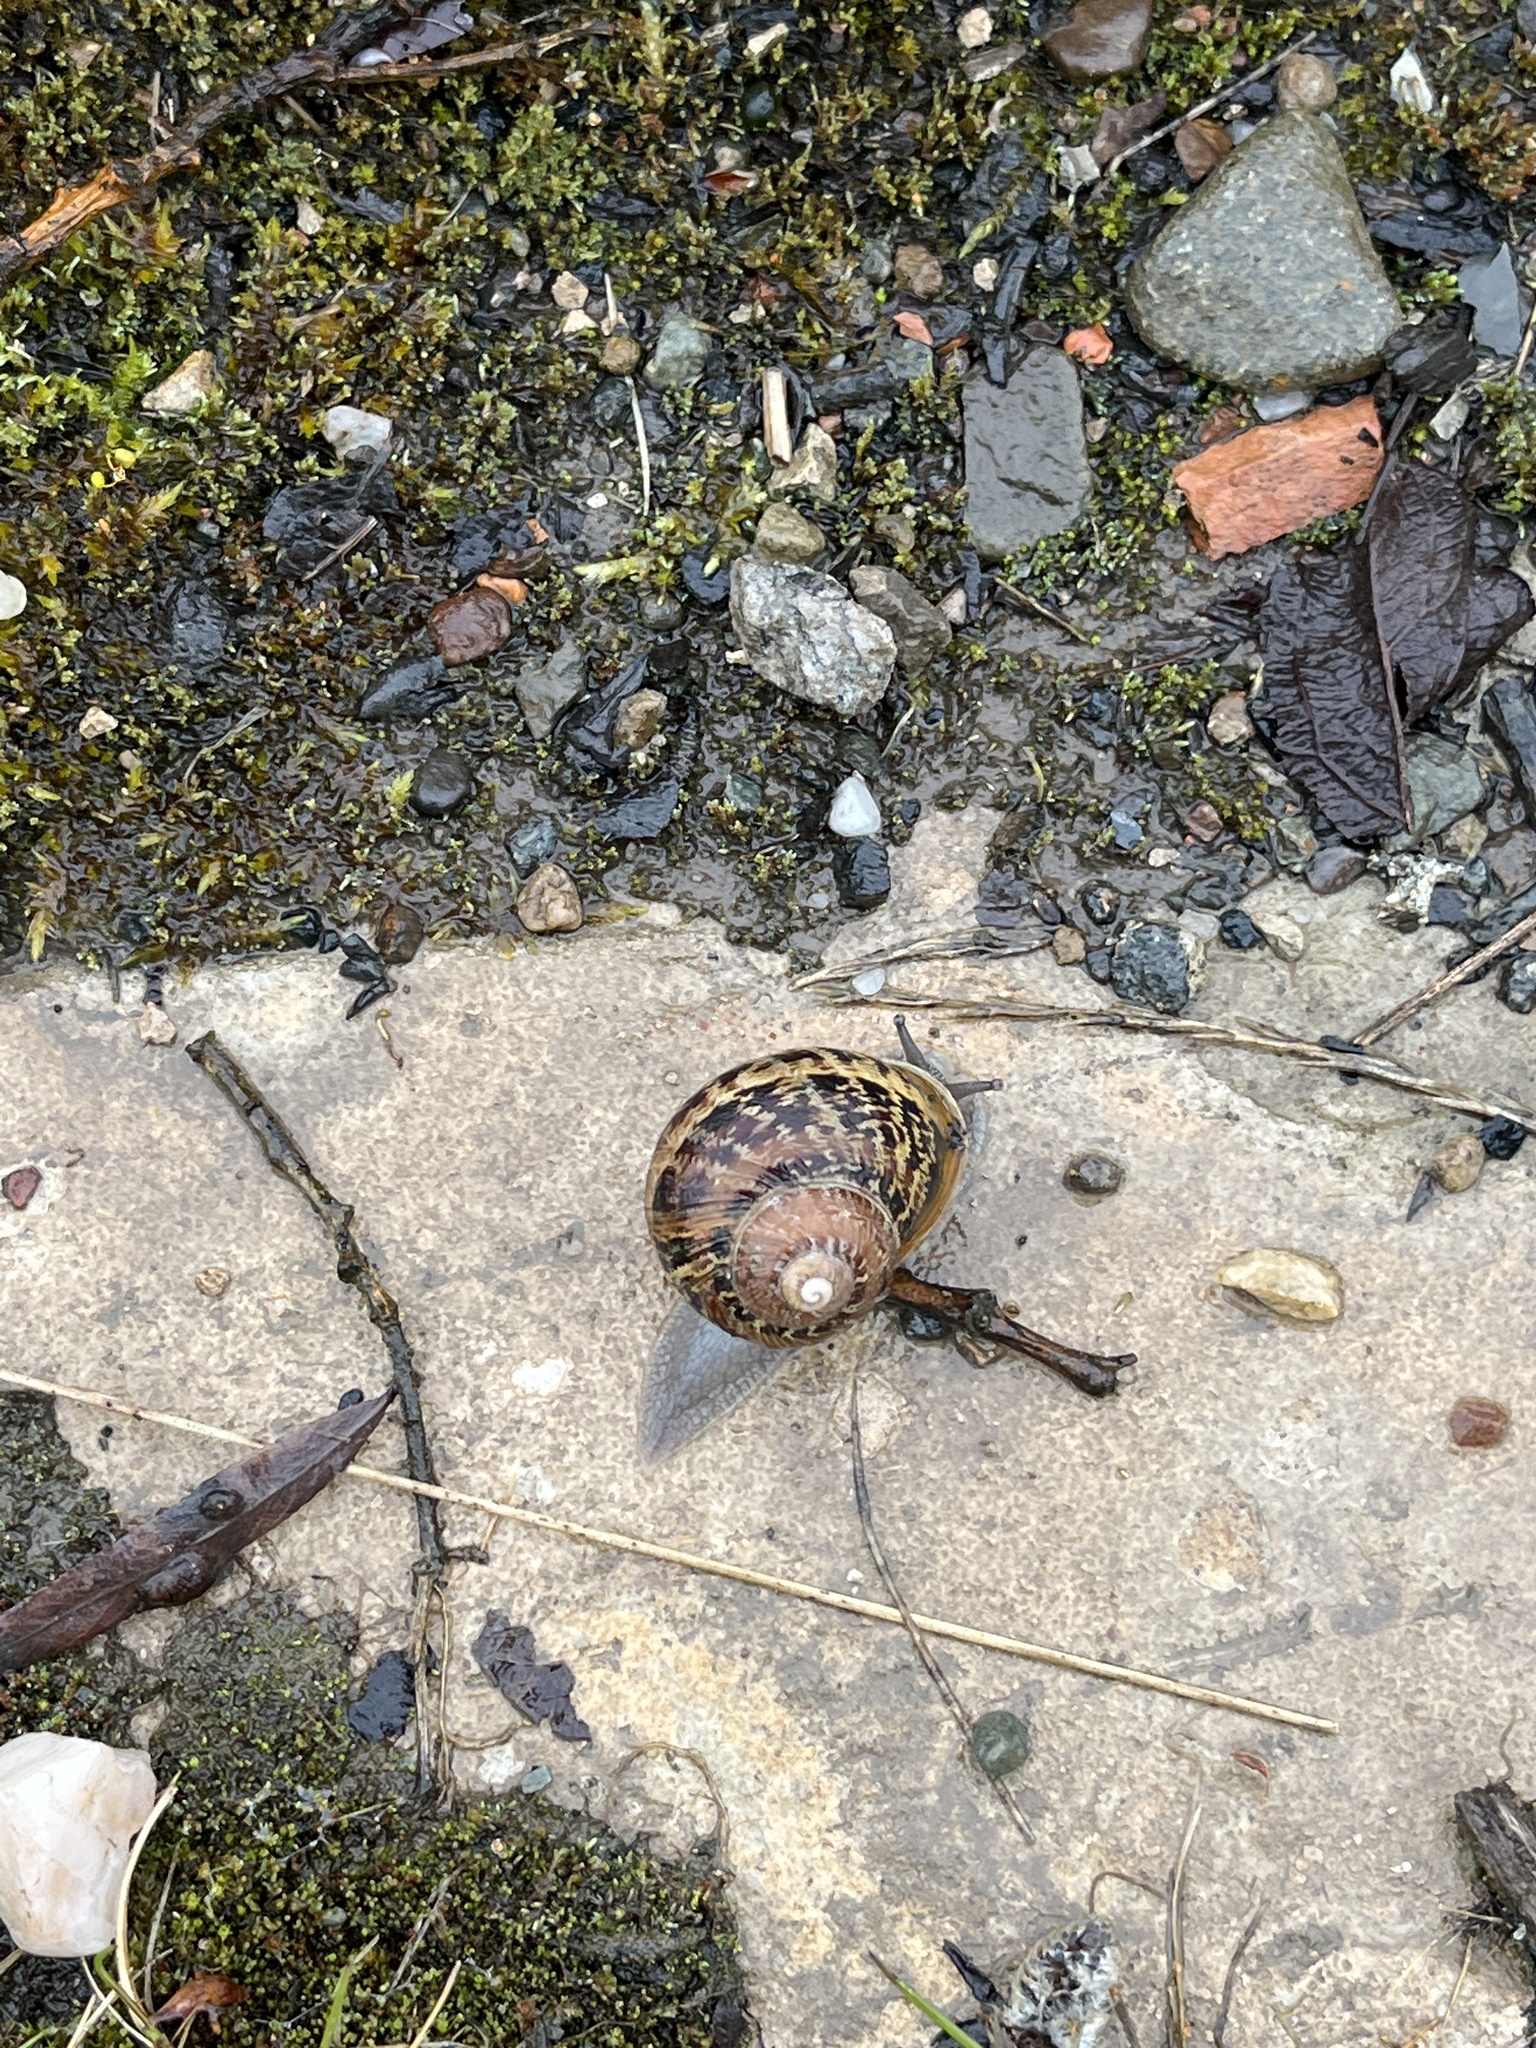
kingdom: Animalia
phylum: Mollusca
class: Gastropoda
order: Stylommatophora
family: Helicidae
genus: Cornu
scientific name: Cornu aspersum
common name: Brown garden snail
